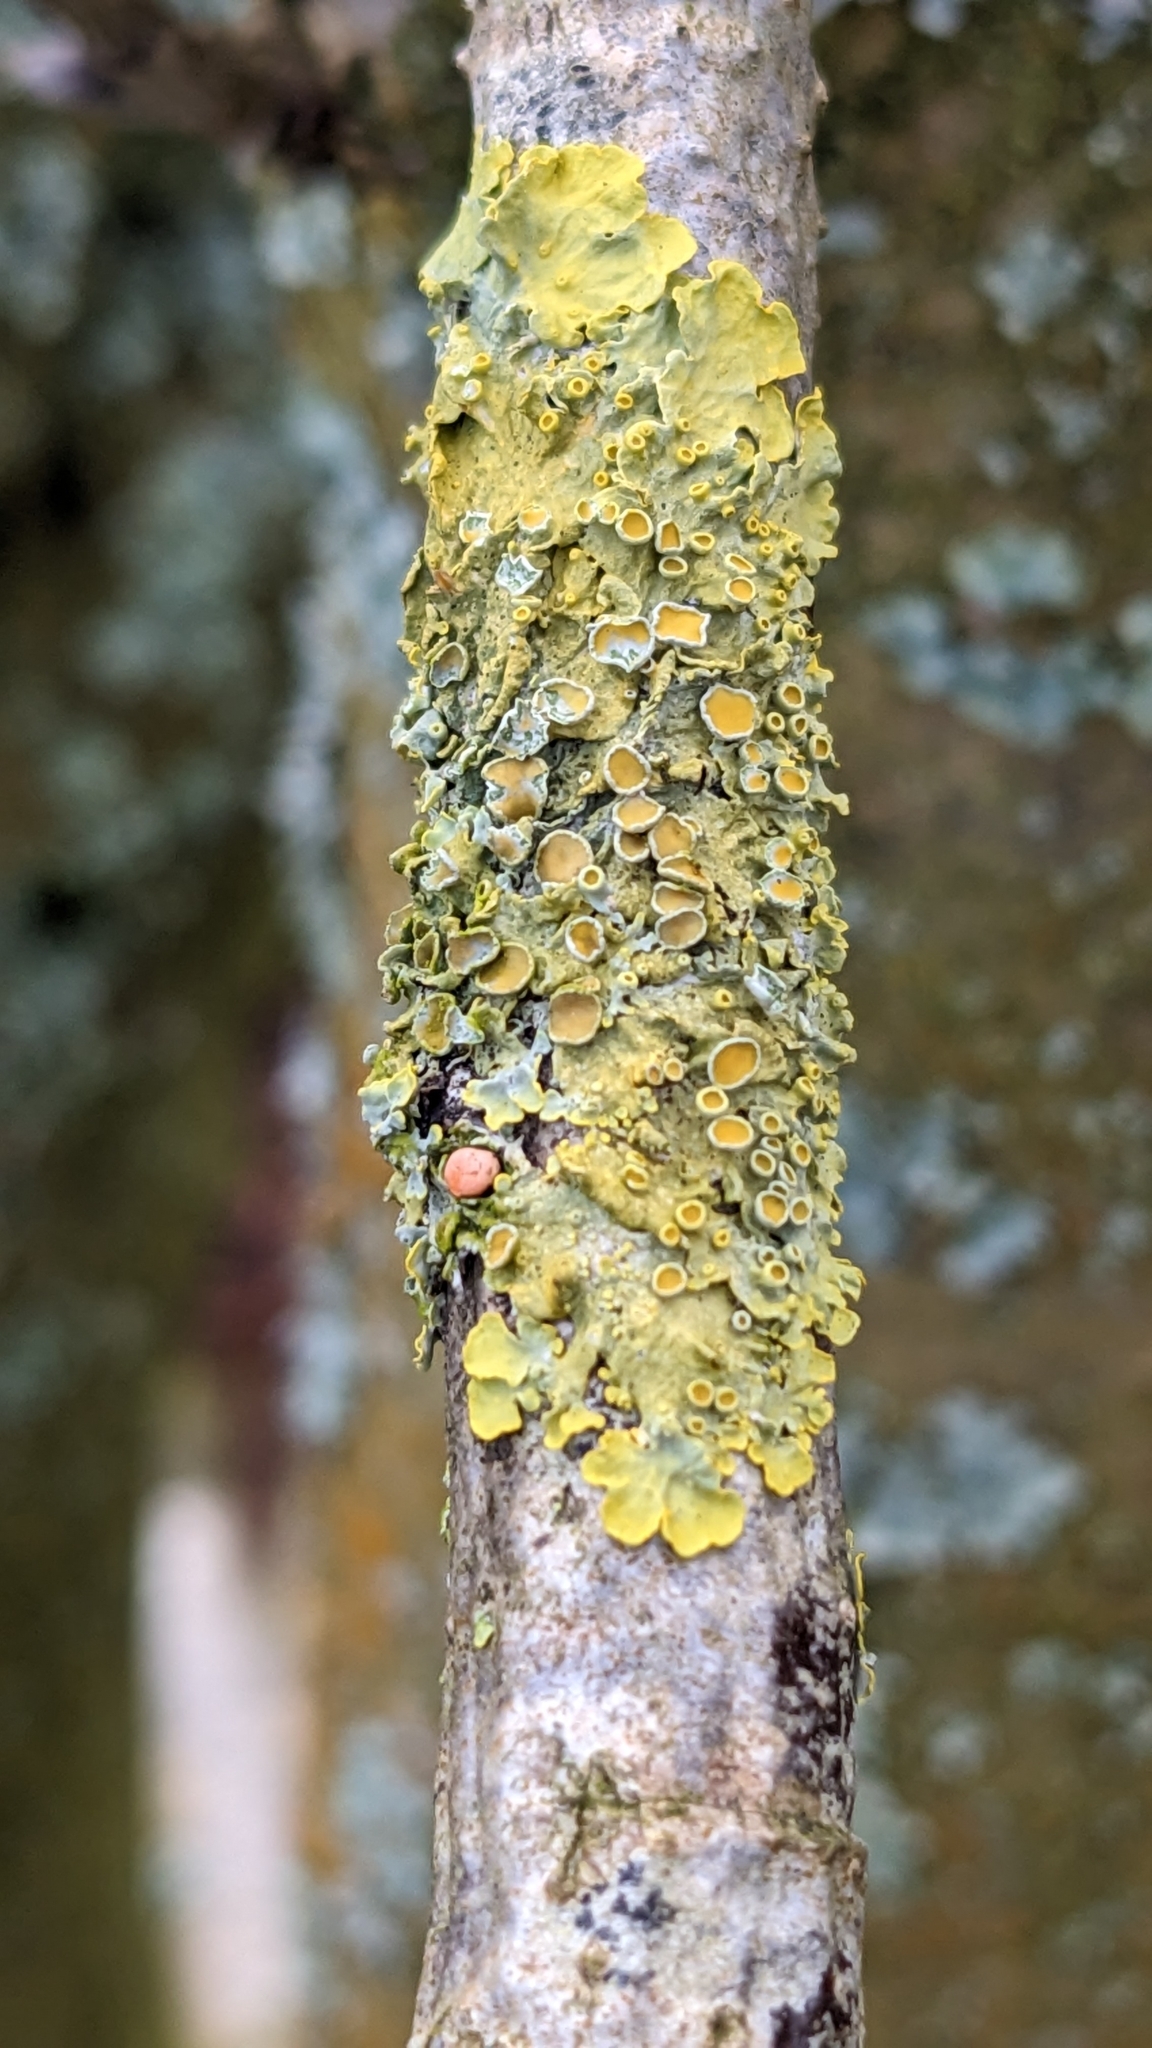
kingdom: Fungi
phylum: Ascomycota
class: Lecanoromycetes
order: Teloschistales
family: Teloschistaceae
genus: Xanthoria
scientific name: Xanthoria parietina
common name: Common orange lichen
